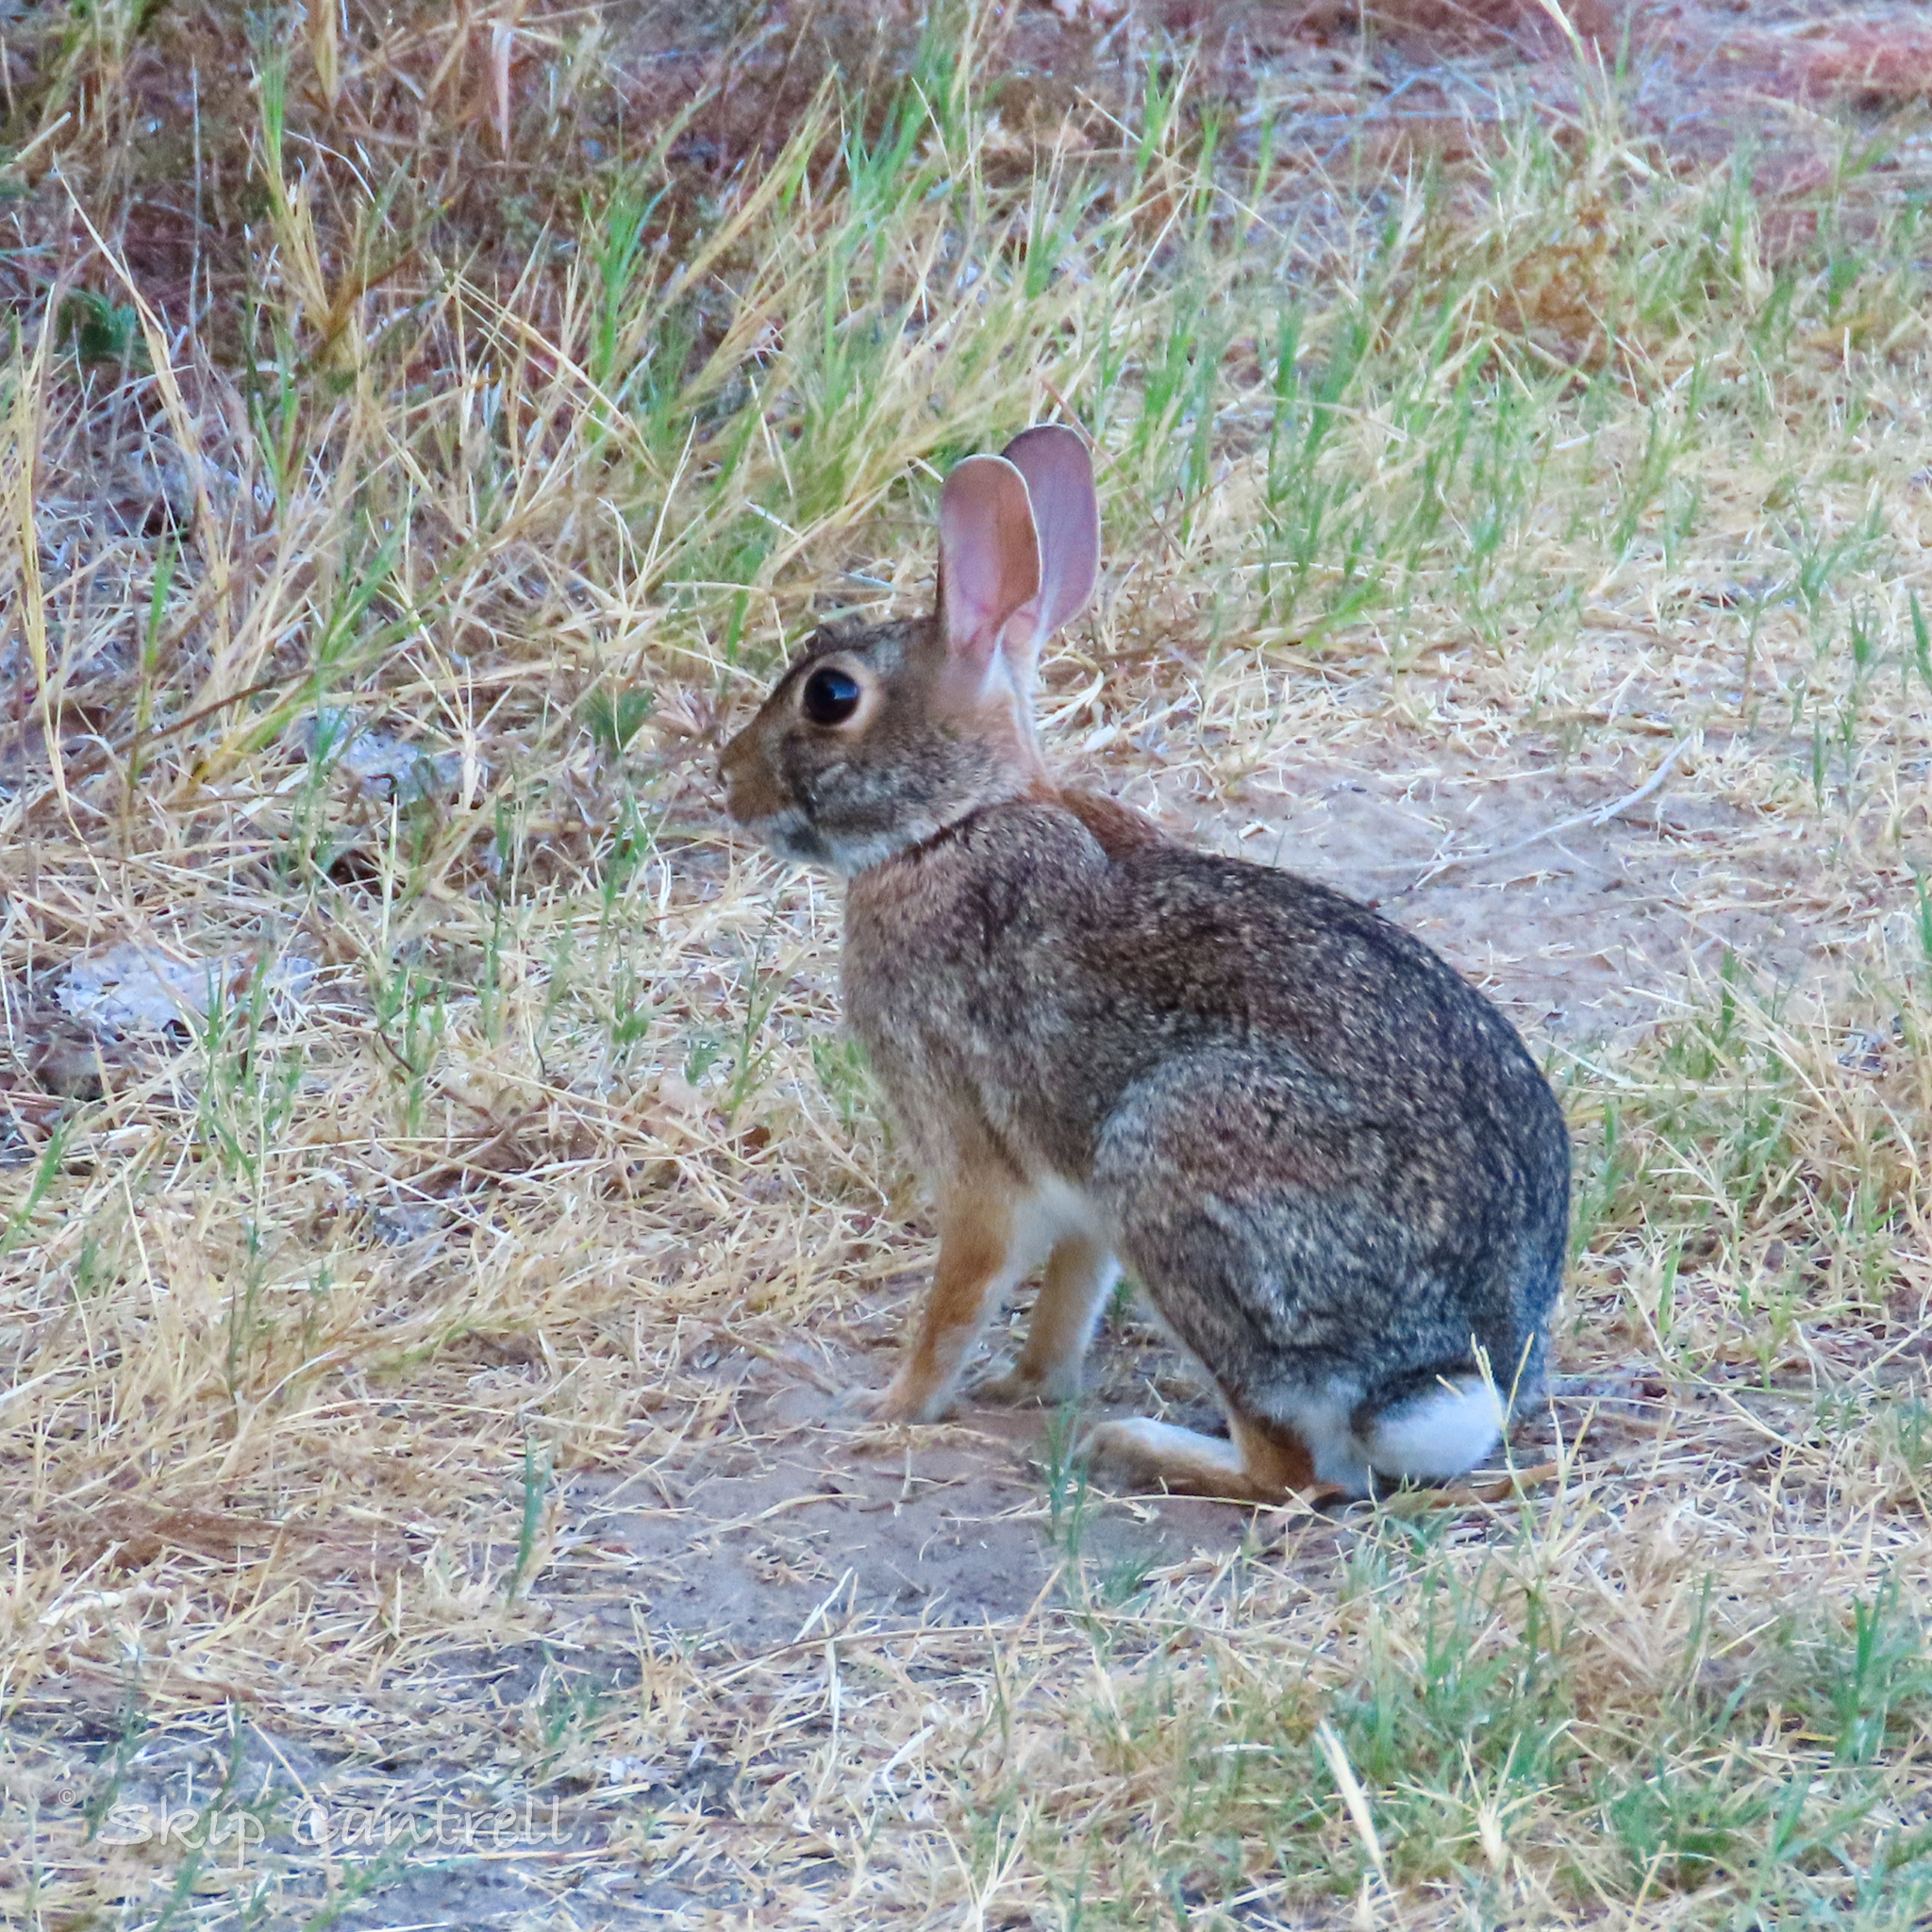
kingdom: Animalia
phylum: Chordata
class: Mammalia
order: Lagomorpha
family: Leporidae
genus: Sylvilagus
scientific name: Sylvilagus floridanus
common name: Eastern cottontail
